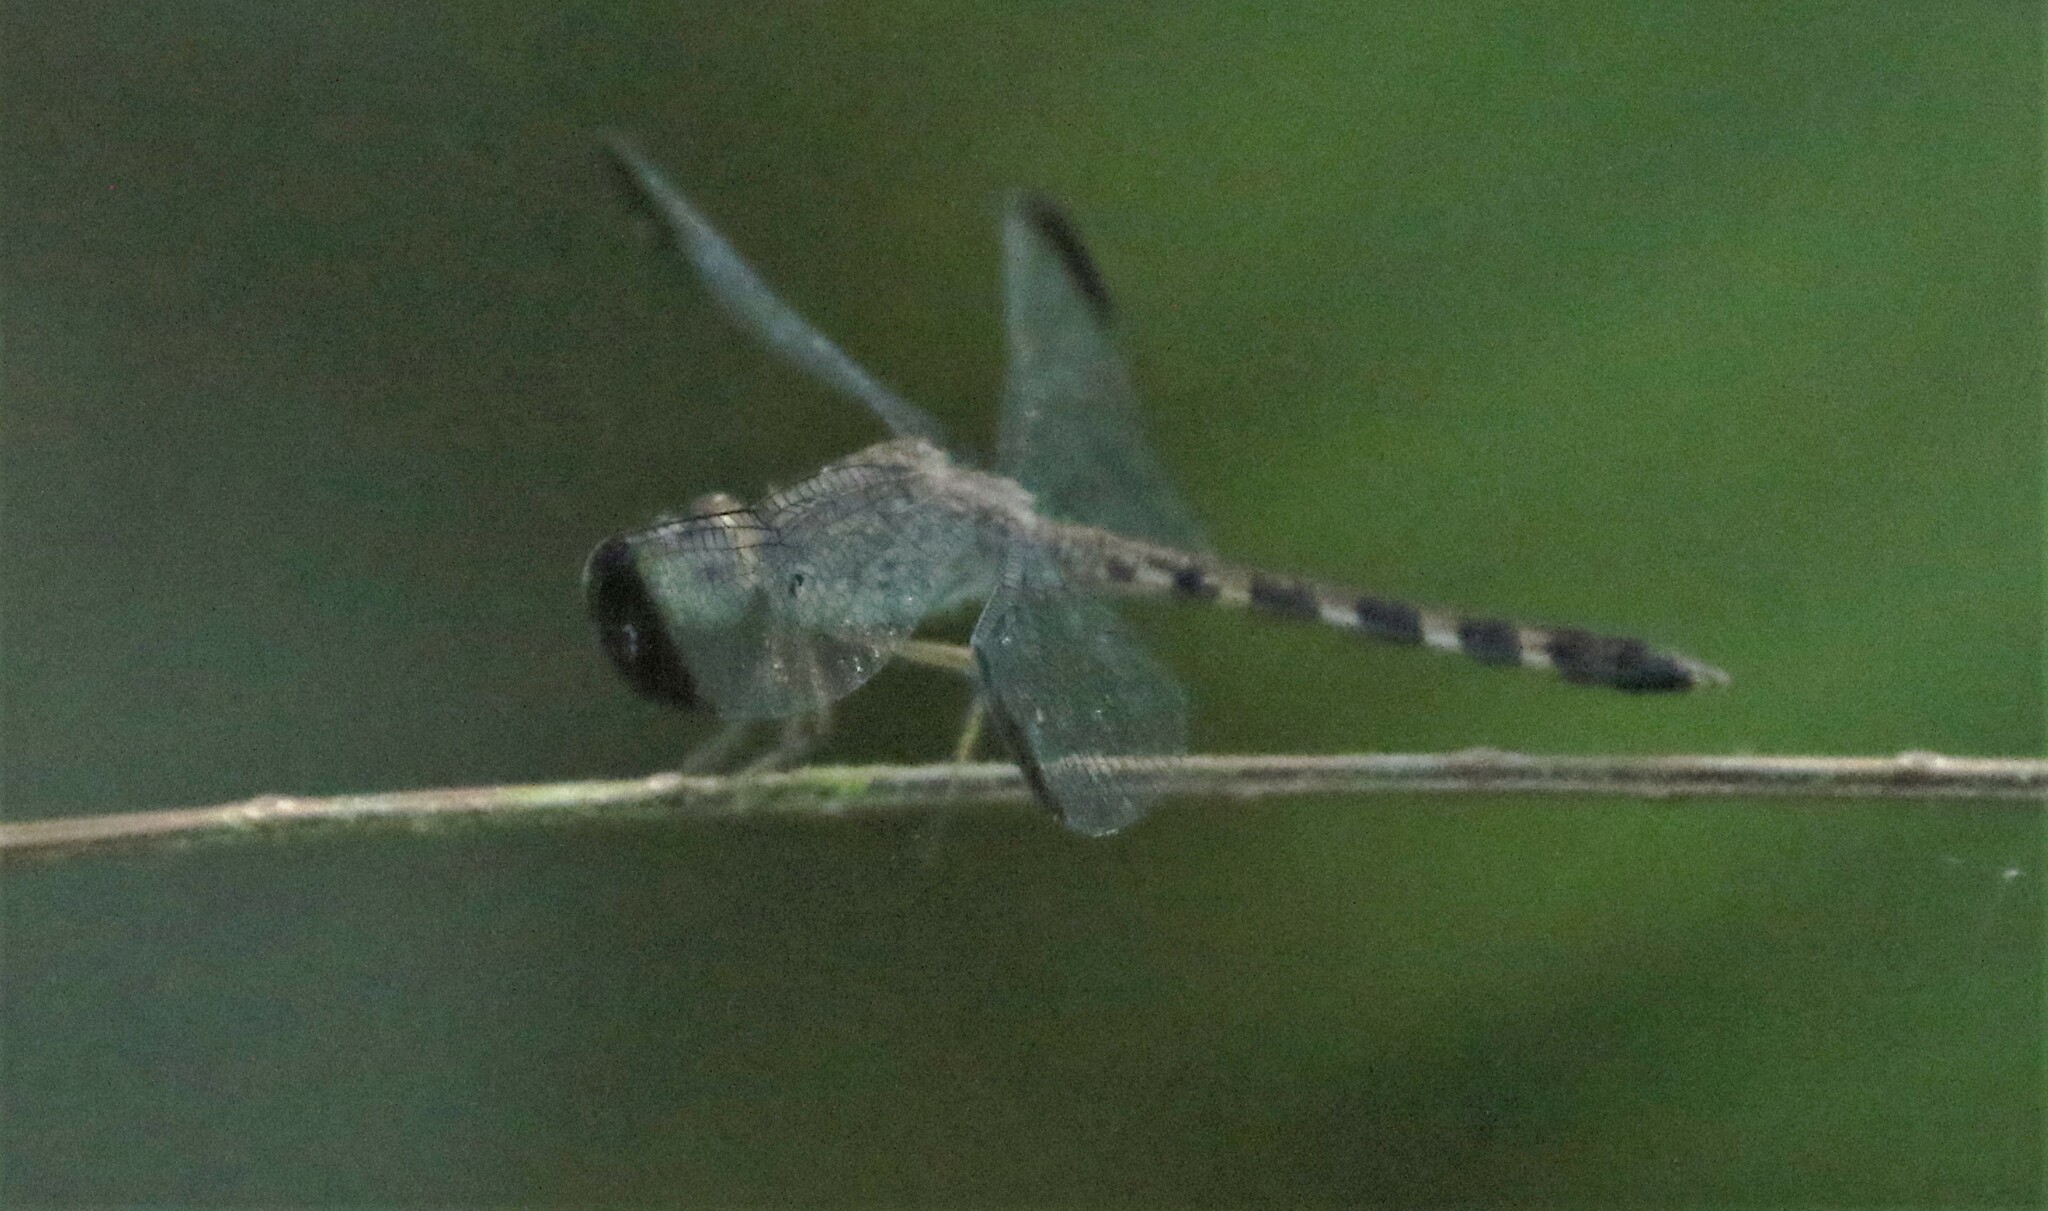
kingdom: Animalia
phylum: Arthropoda
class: Insecta
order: Odonata
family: Libellulidae
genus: Uracis
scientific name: Uracis imbuta
